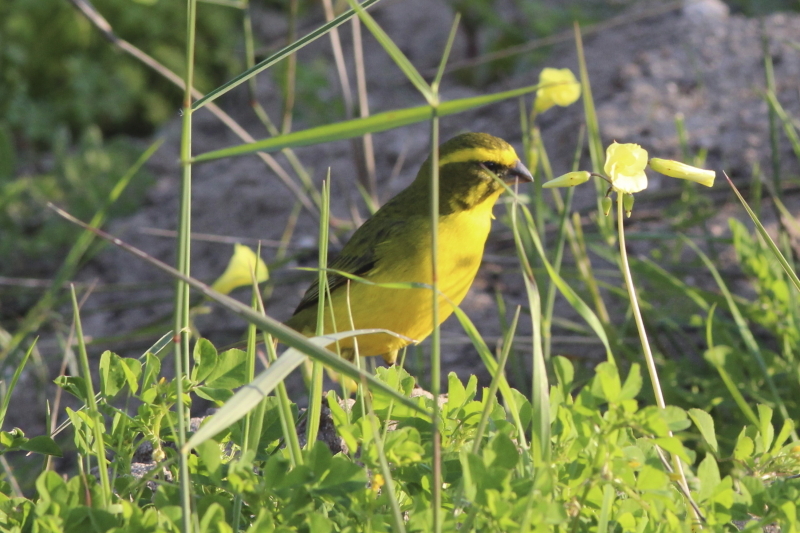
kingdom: Animalia
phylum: Chordata
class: Aves
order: Passeriformes
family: Fringillidae
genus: Crithagra
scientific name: Crithagra flaviventris
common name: Yellow canary
